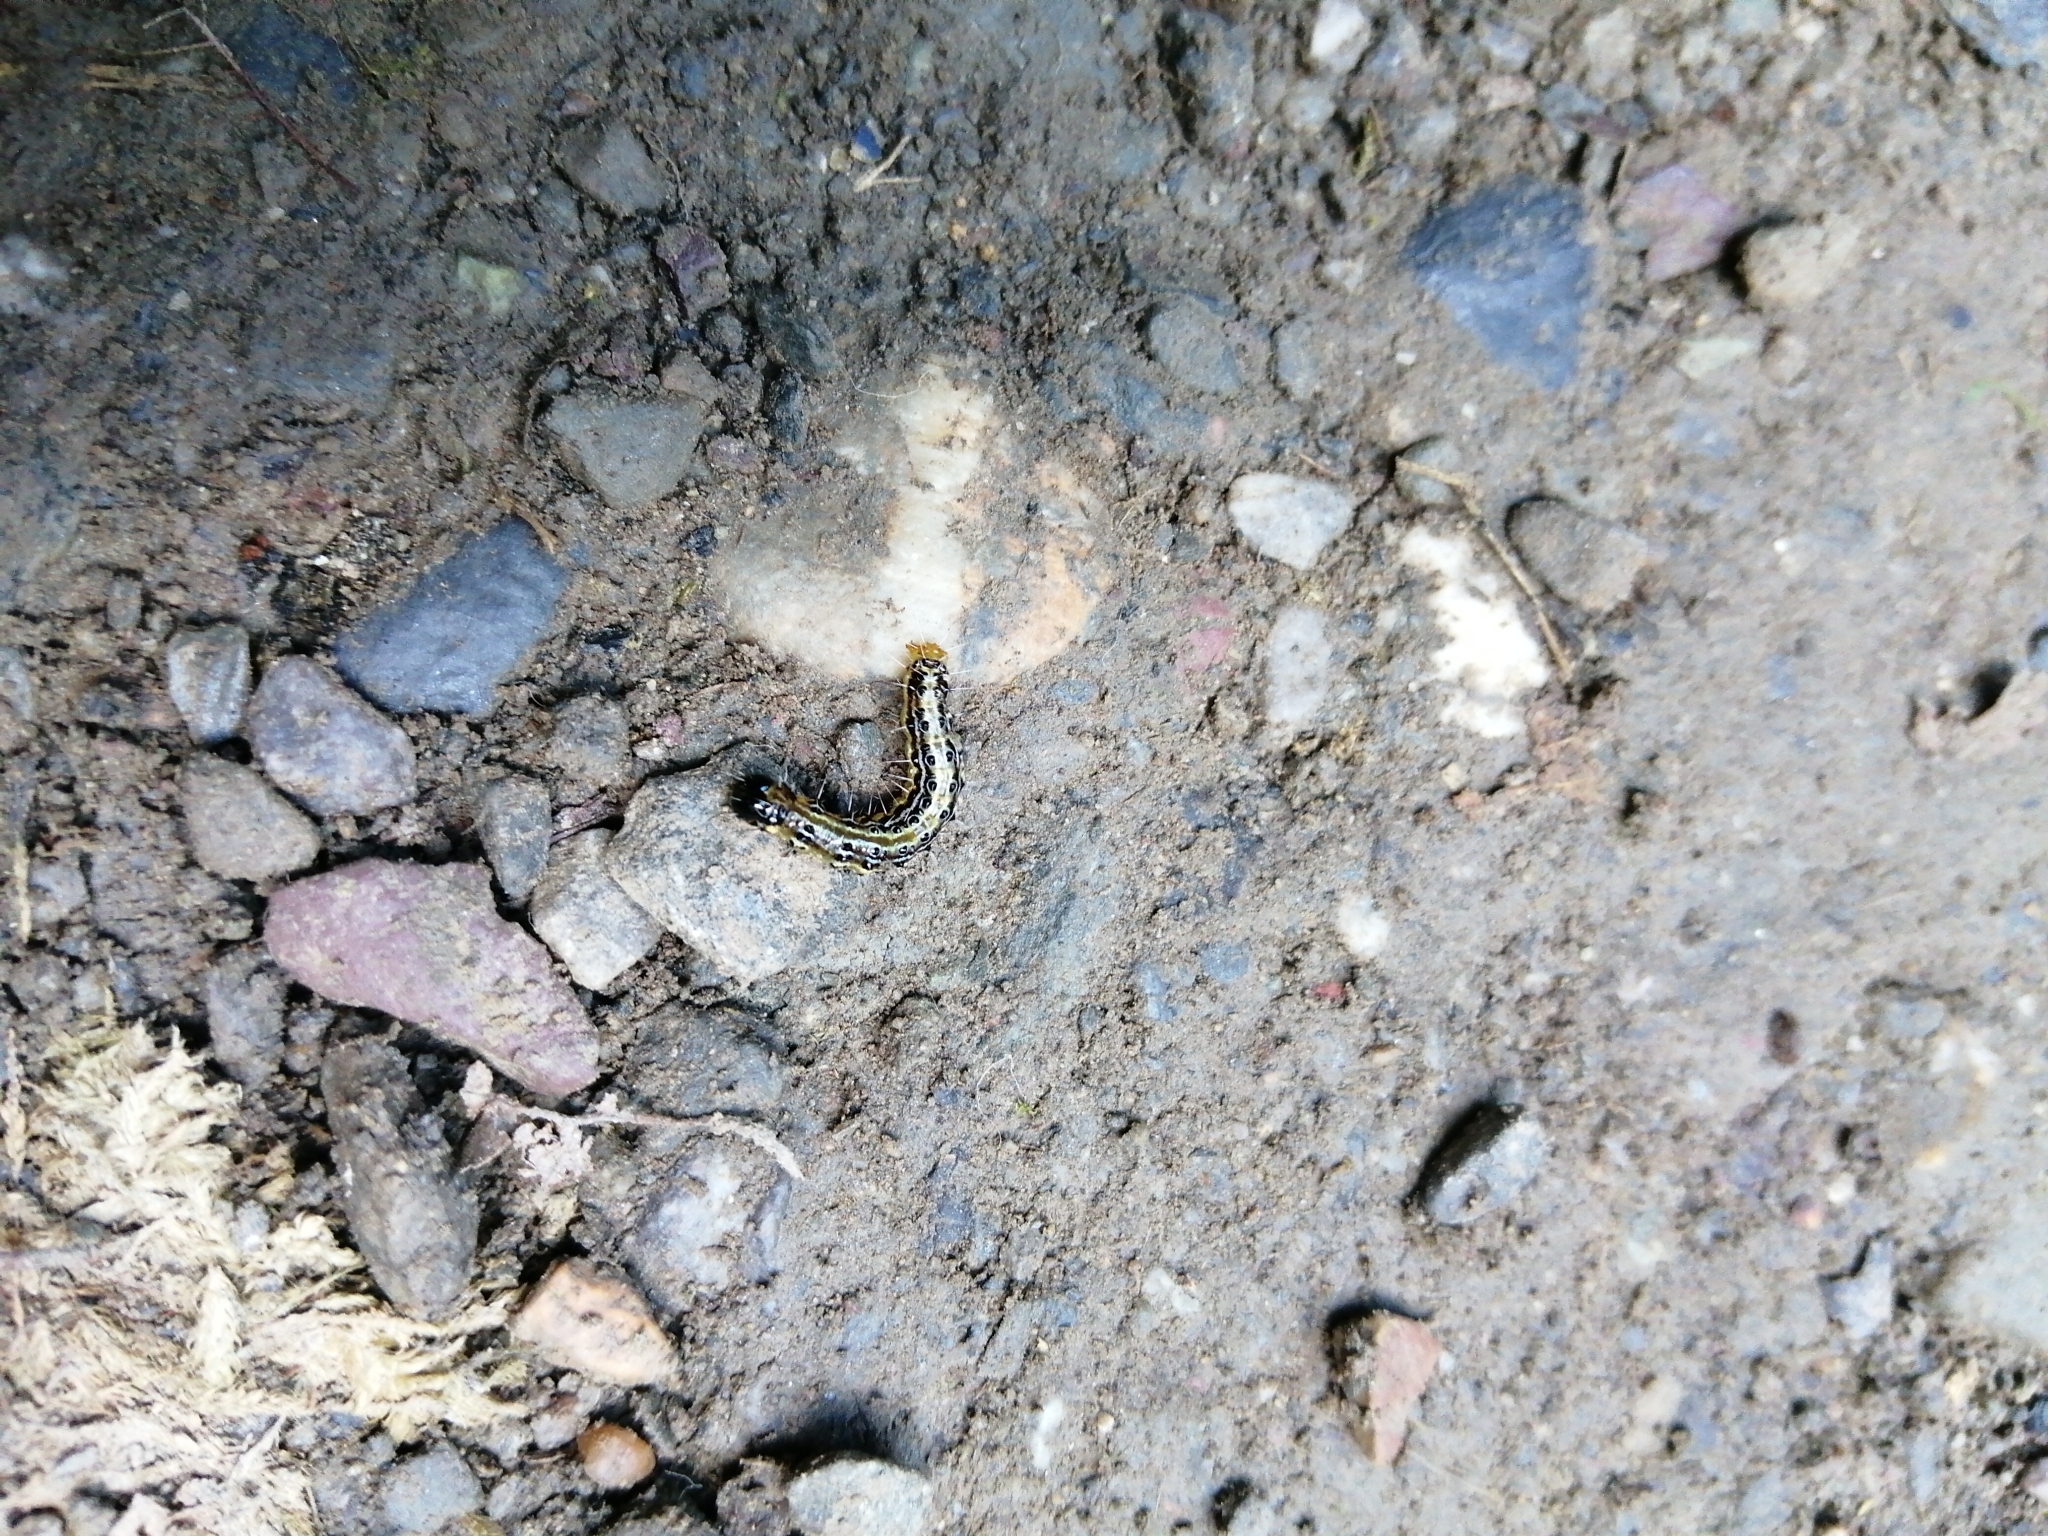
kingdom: Animalia
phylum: Arthropoda
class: Insecta
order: Lepidoptera
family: Crambidae
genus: Cydalima
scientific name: Cydalima perspectalis
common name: Box tree moth
